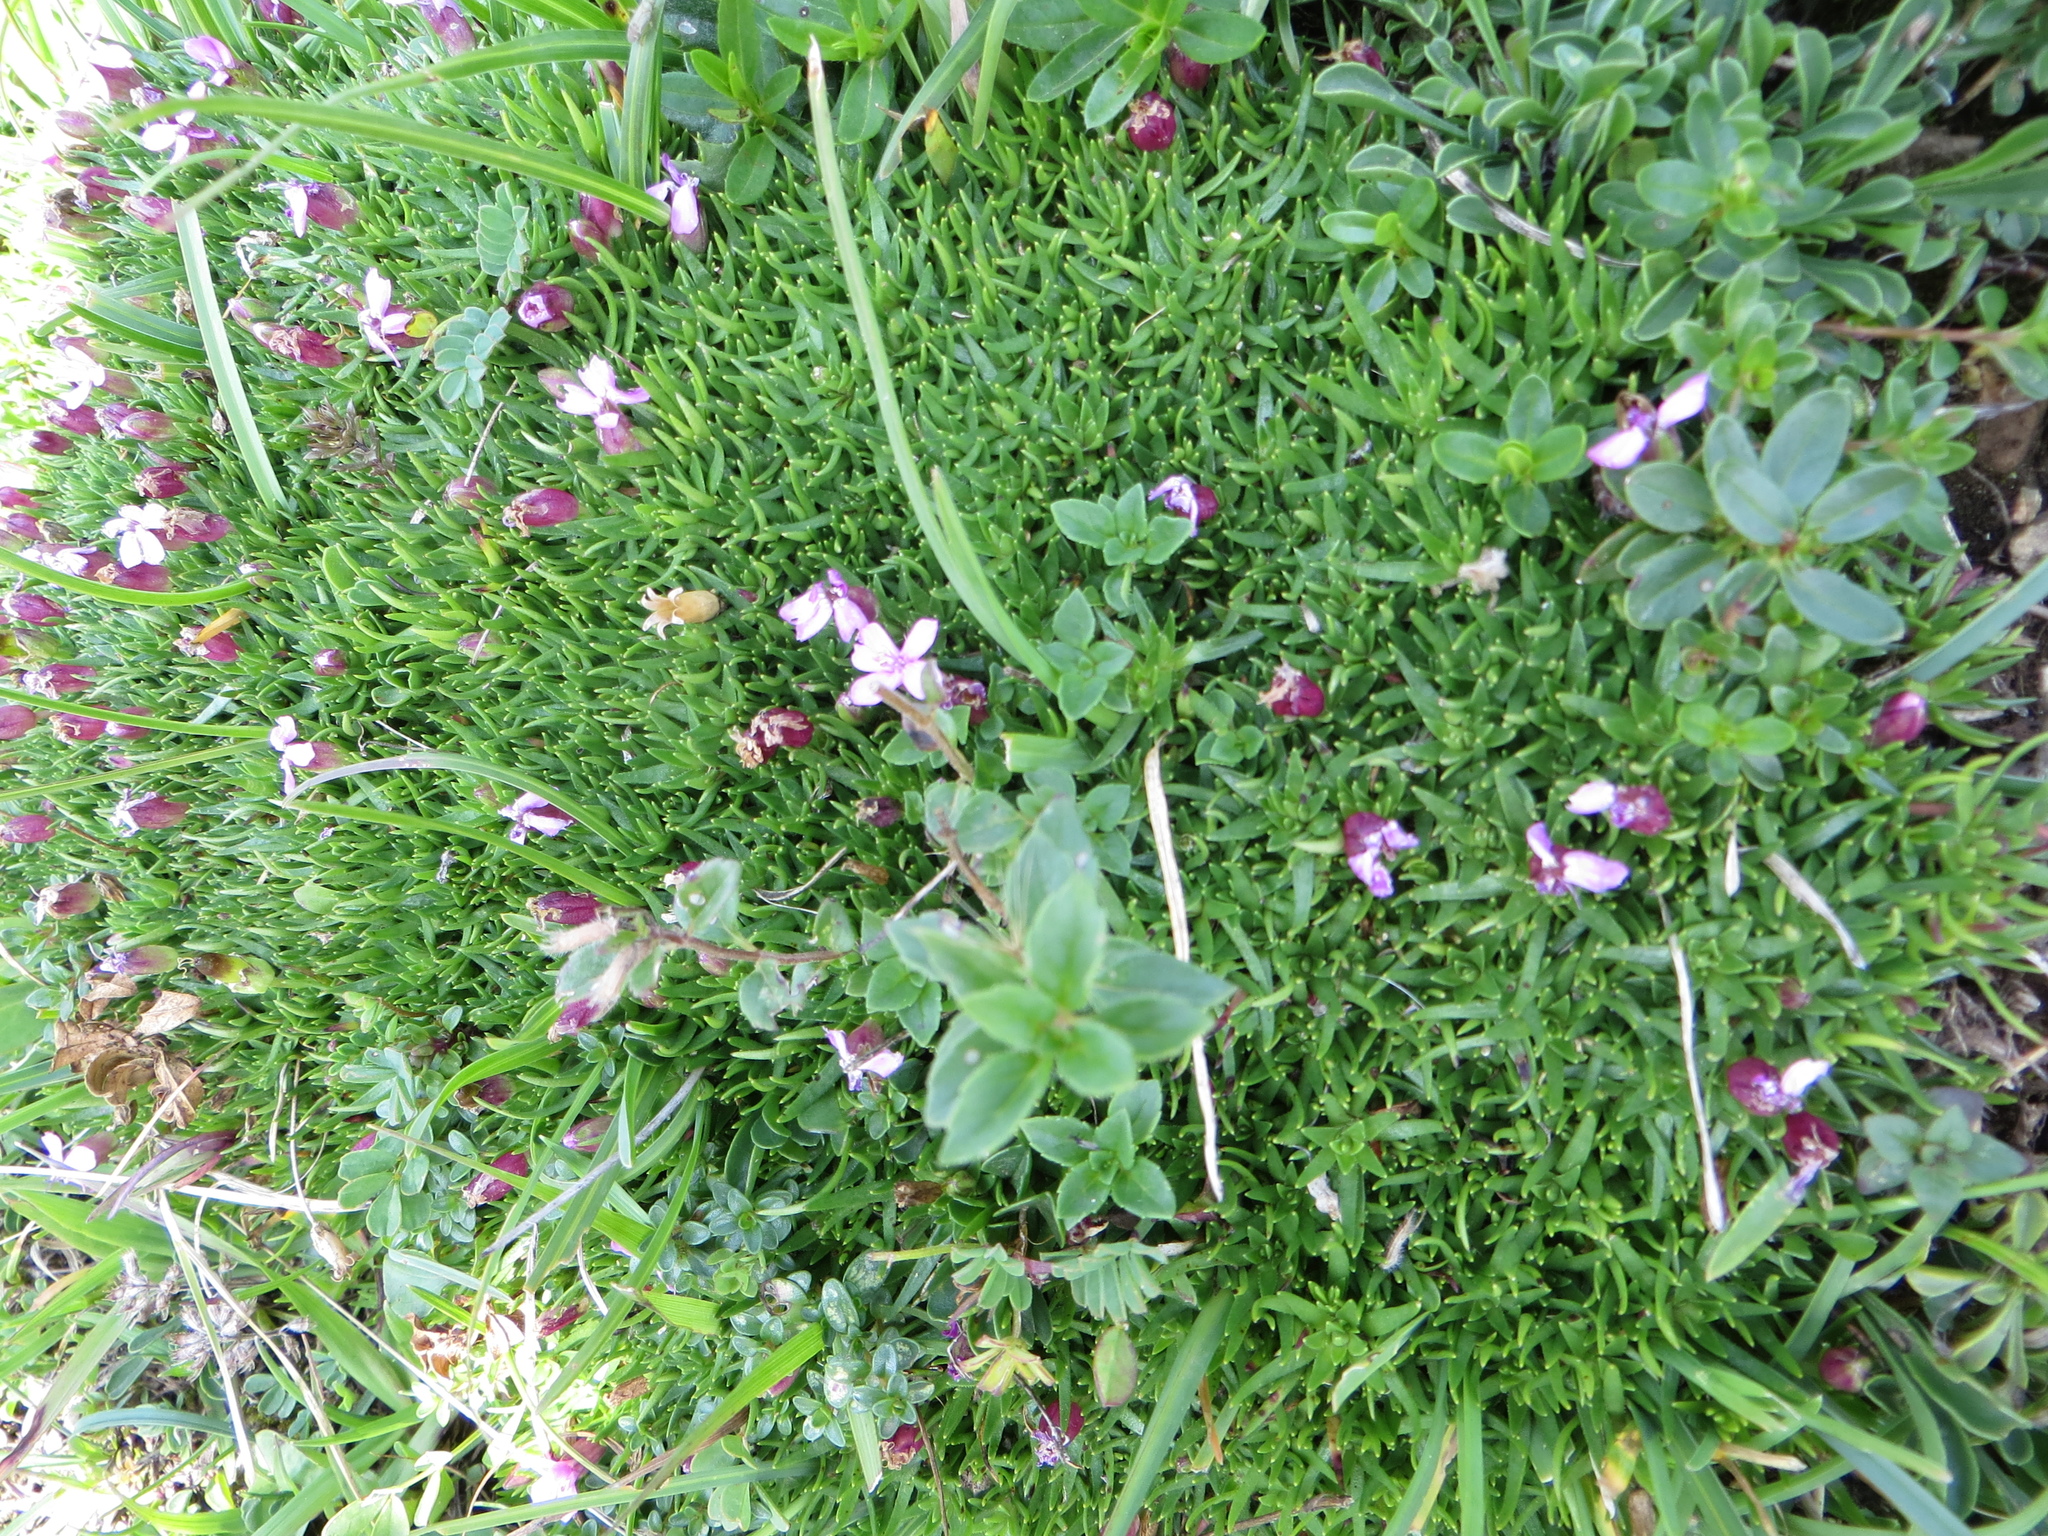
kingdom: Plantae
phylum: Tracheophyta
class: Magnoliopsida
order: Caryophyllales
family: Caryophyllaceae
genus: Silene
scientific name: Silene acaulis
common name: Moss campion
